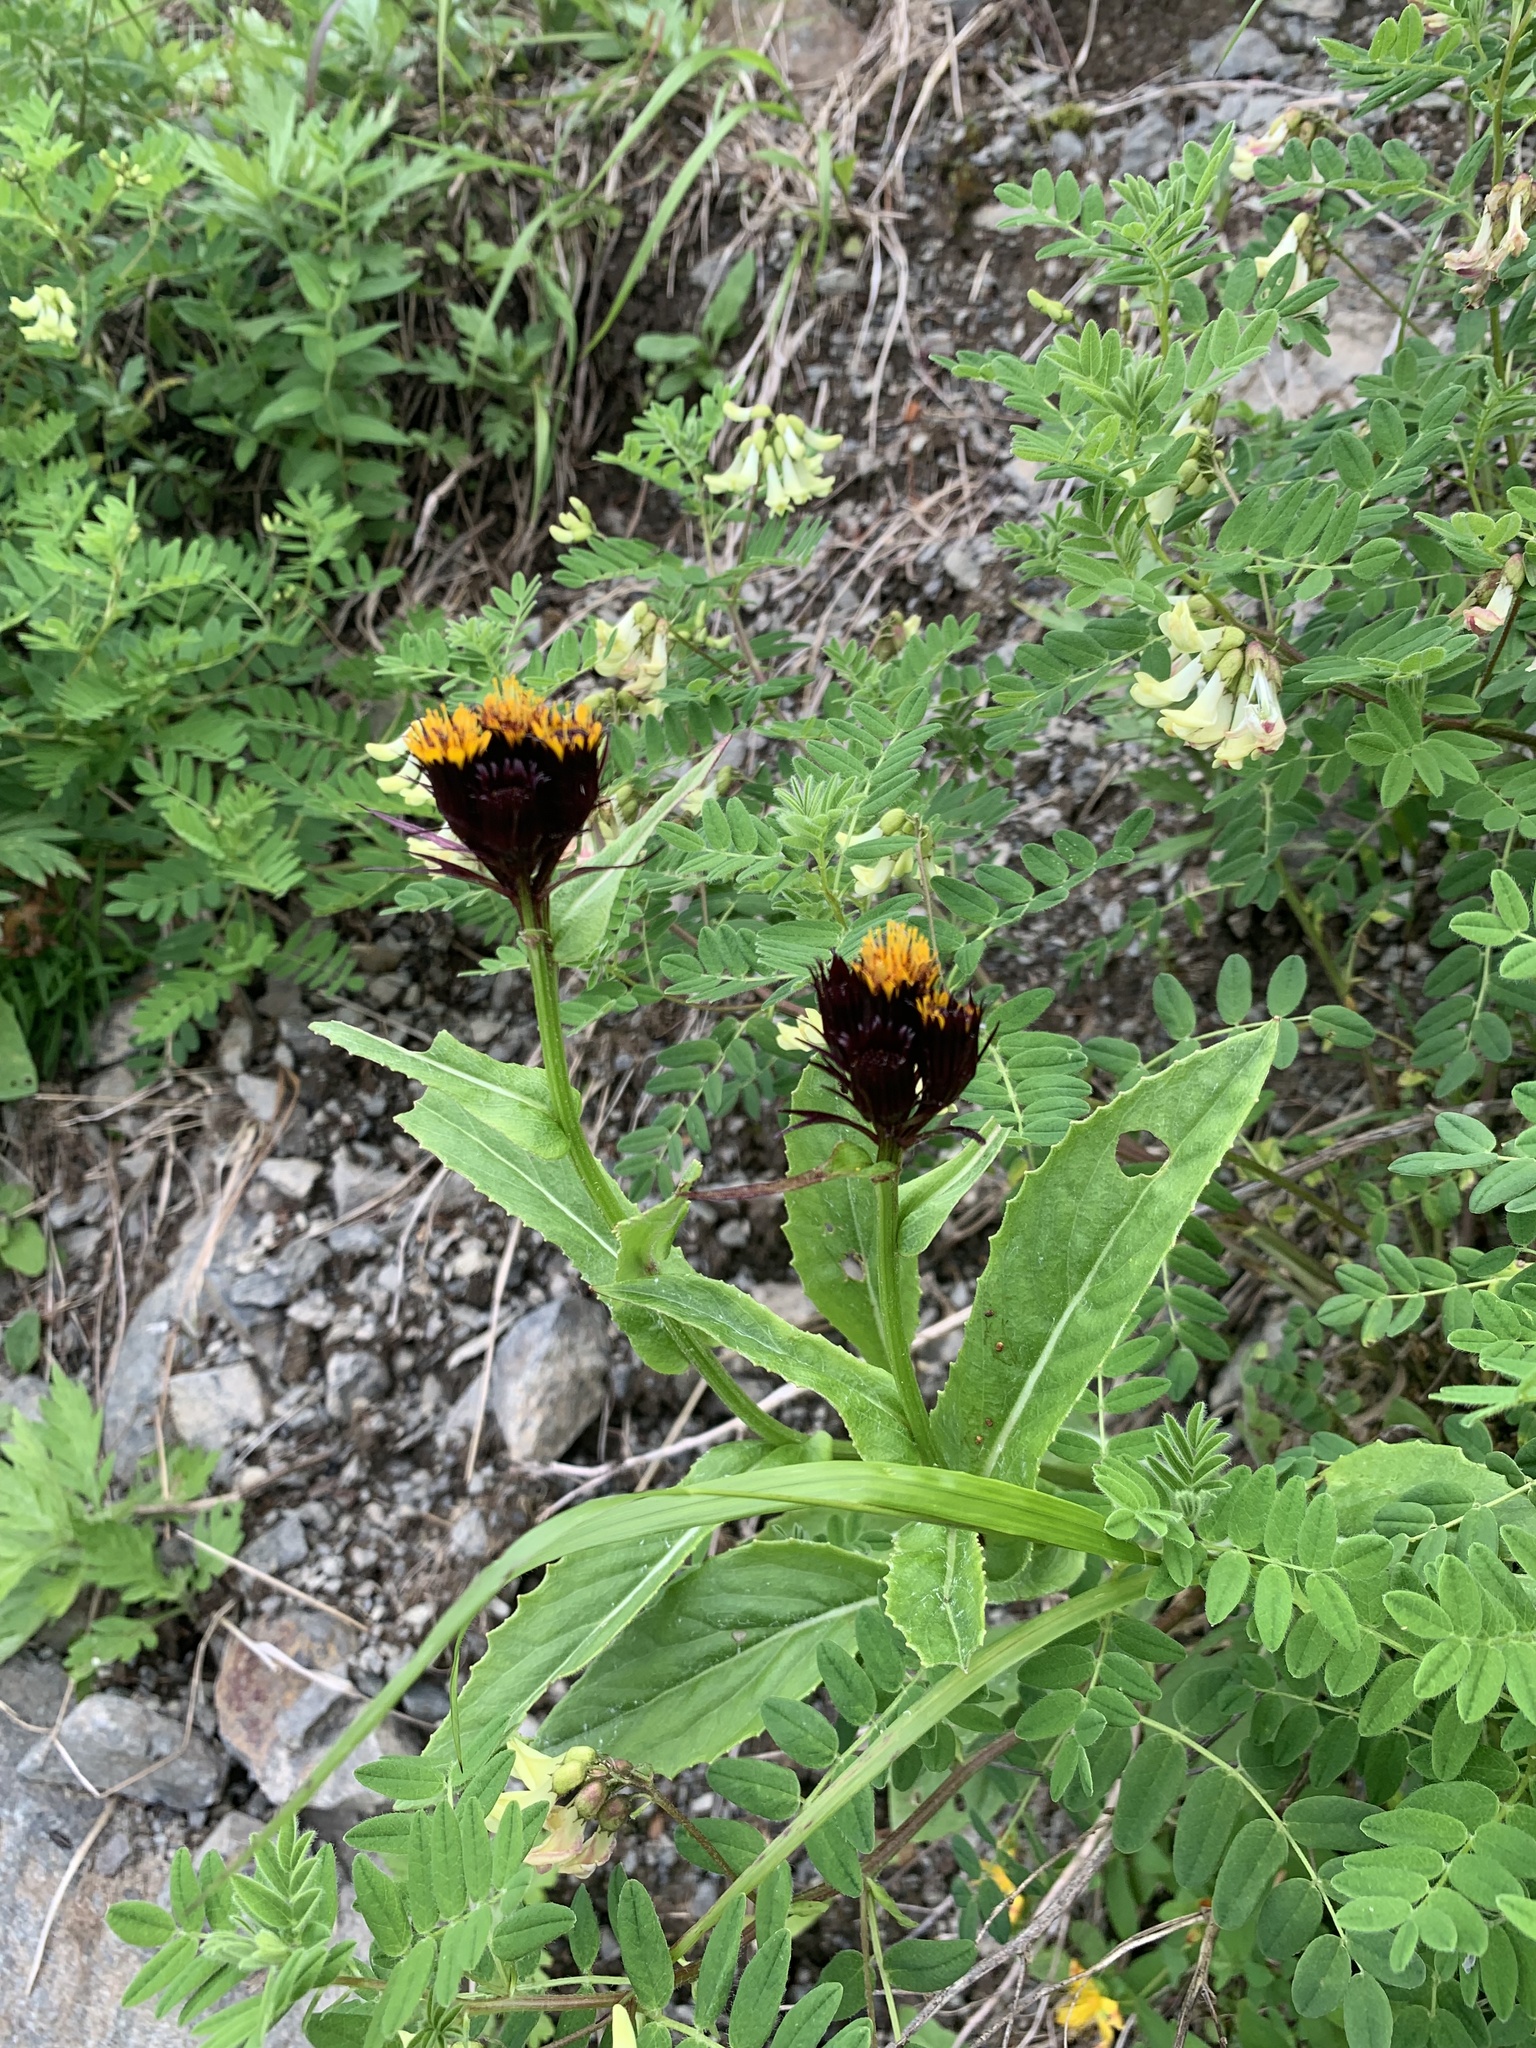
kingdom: Plantae
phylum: Tracheophyta
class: Magnoliopsida
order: Asterales
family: Asteraceae
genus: Tephroseris
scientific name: Tephroseris takedana
